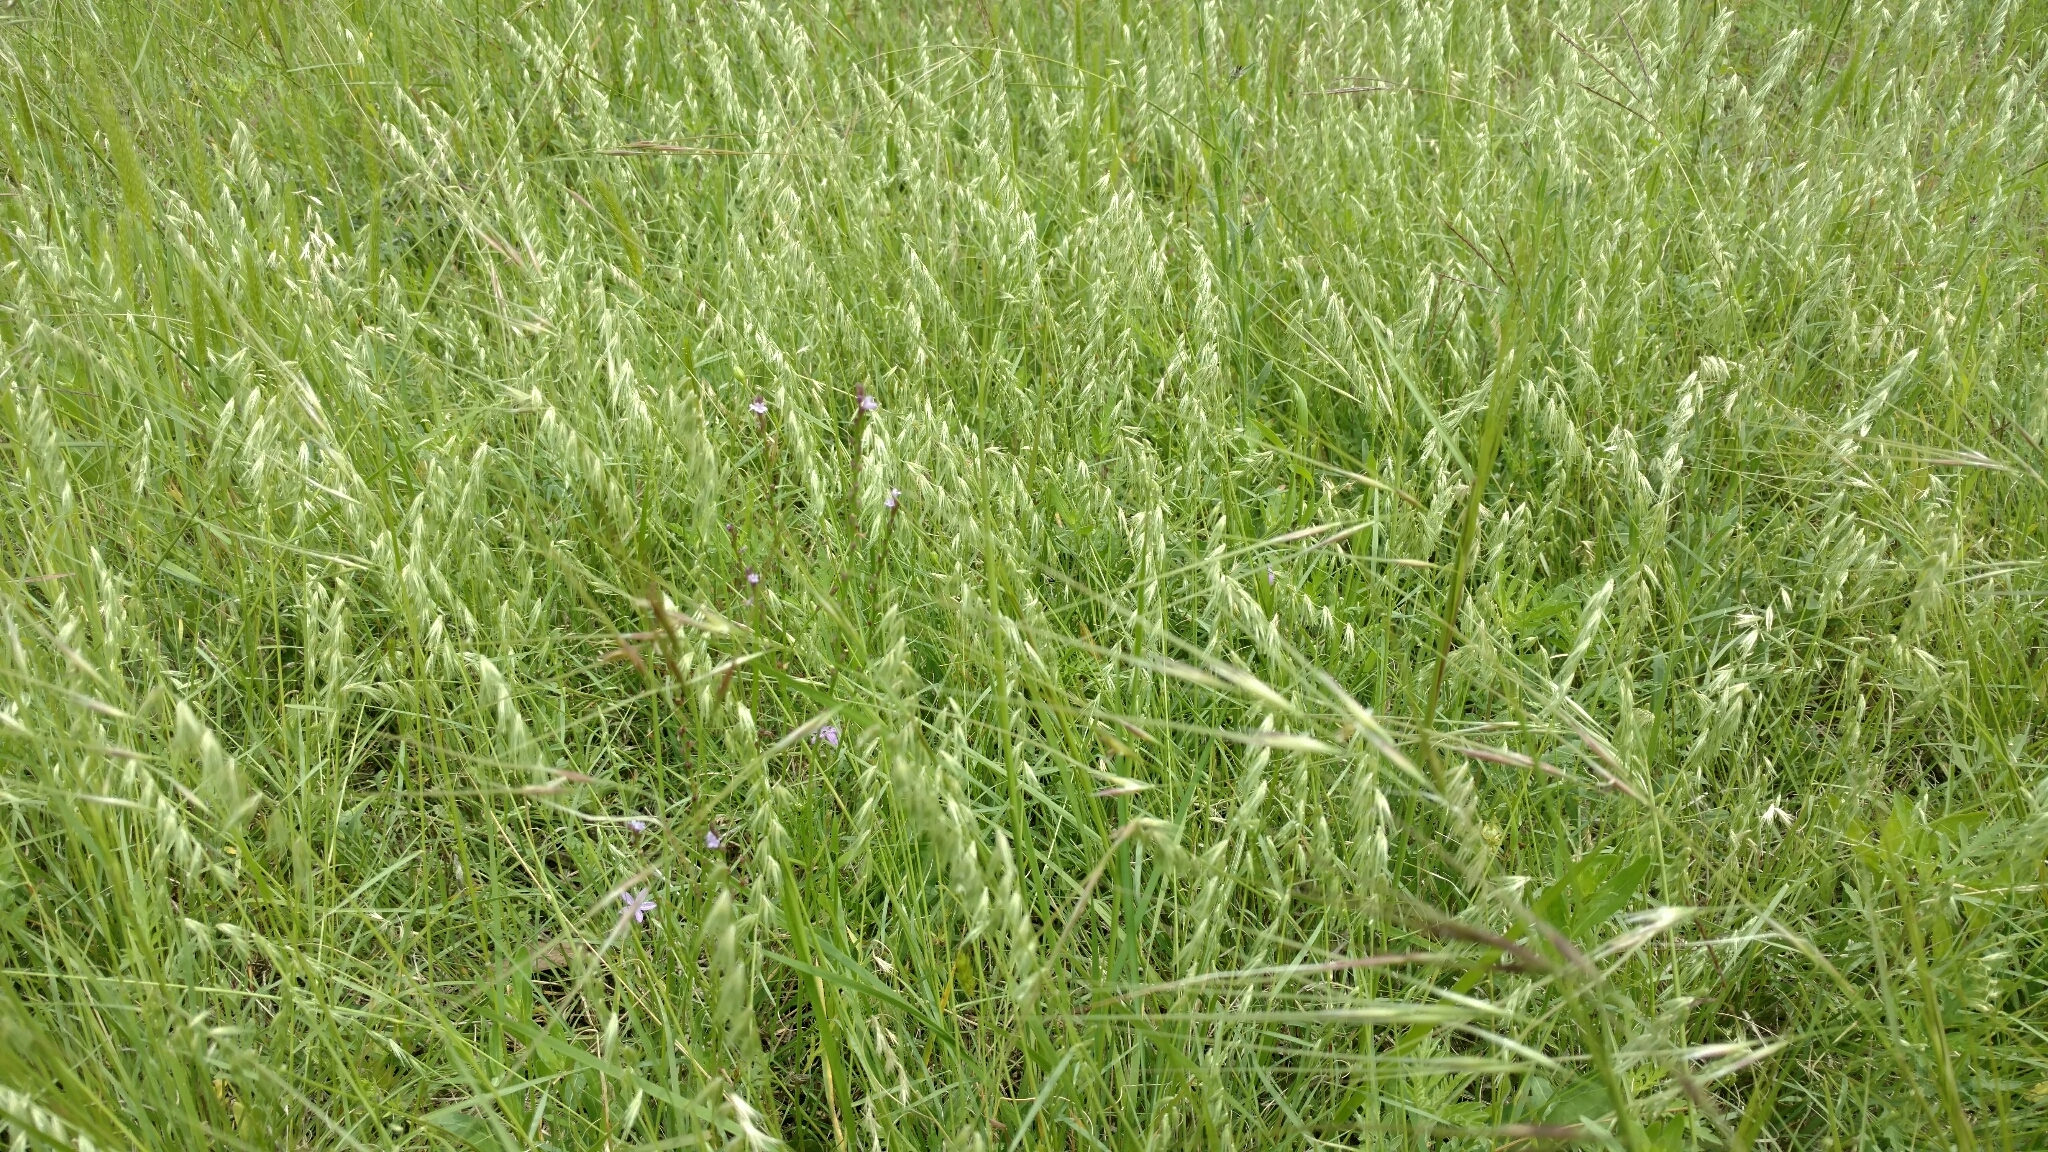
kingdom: Plantae
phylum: Tracheophyta
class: Liliopsida
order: Poales
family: Poaceae
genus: Bouteloua
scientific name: Bouteloua rigidiseta
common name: Texas grama
